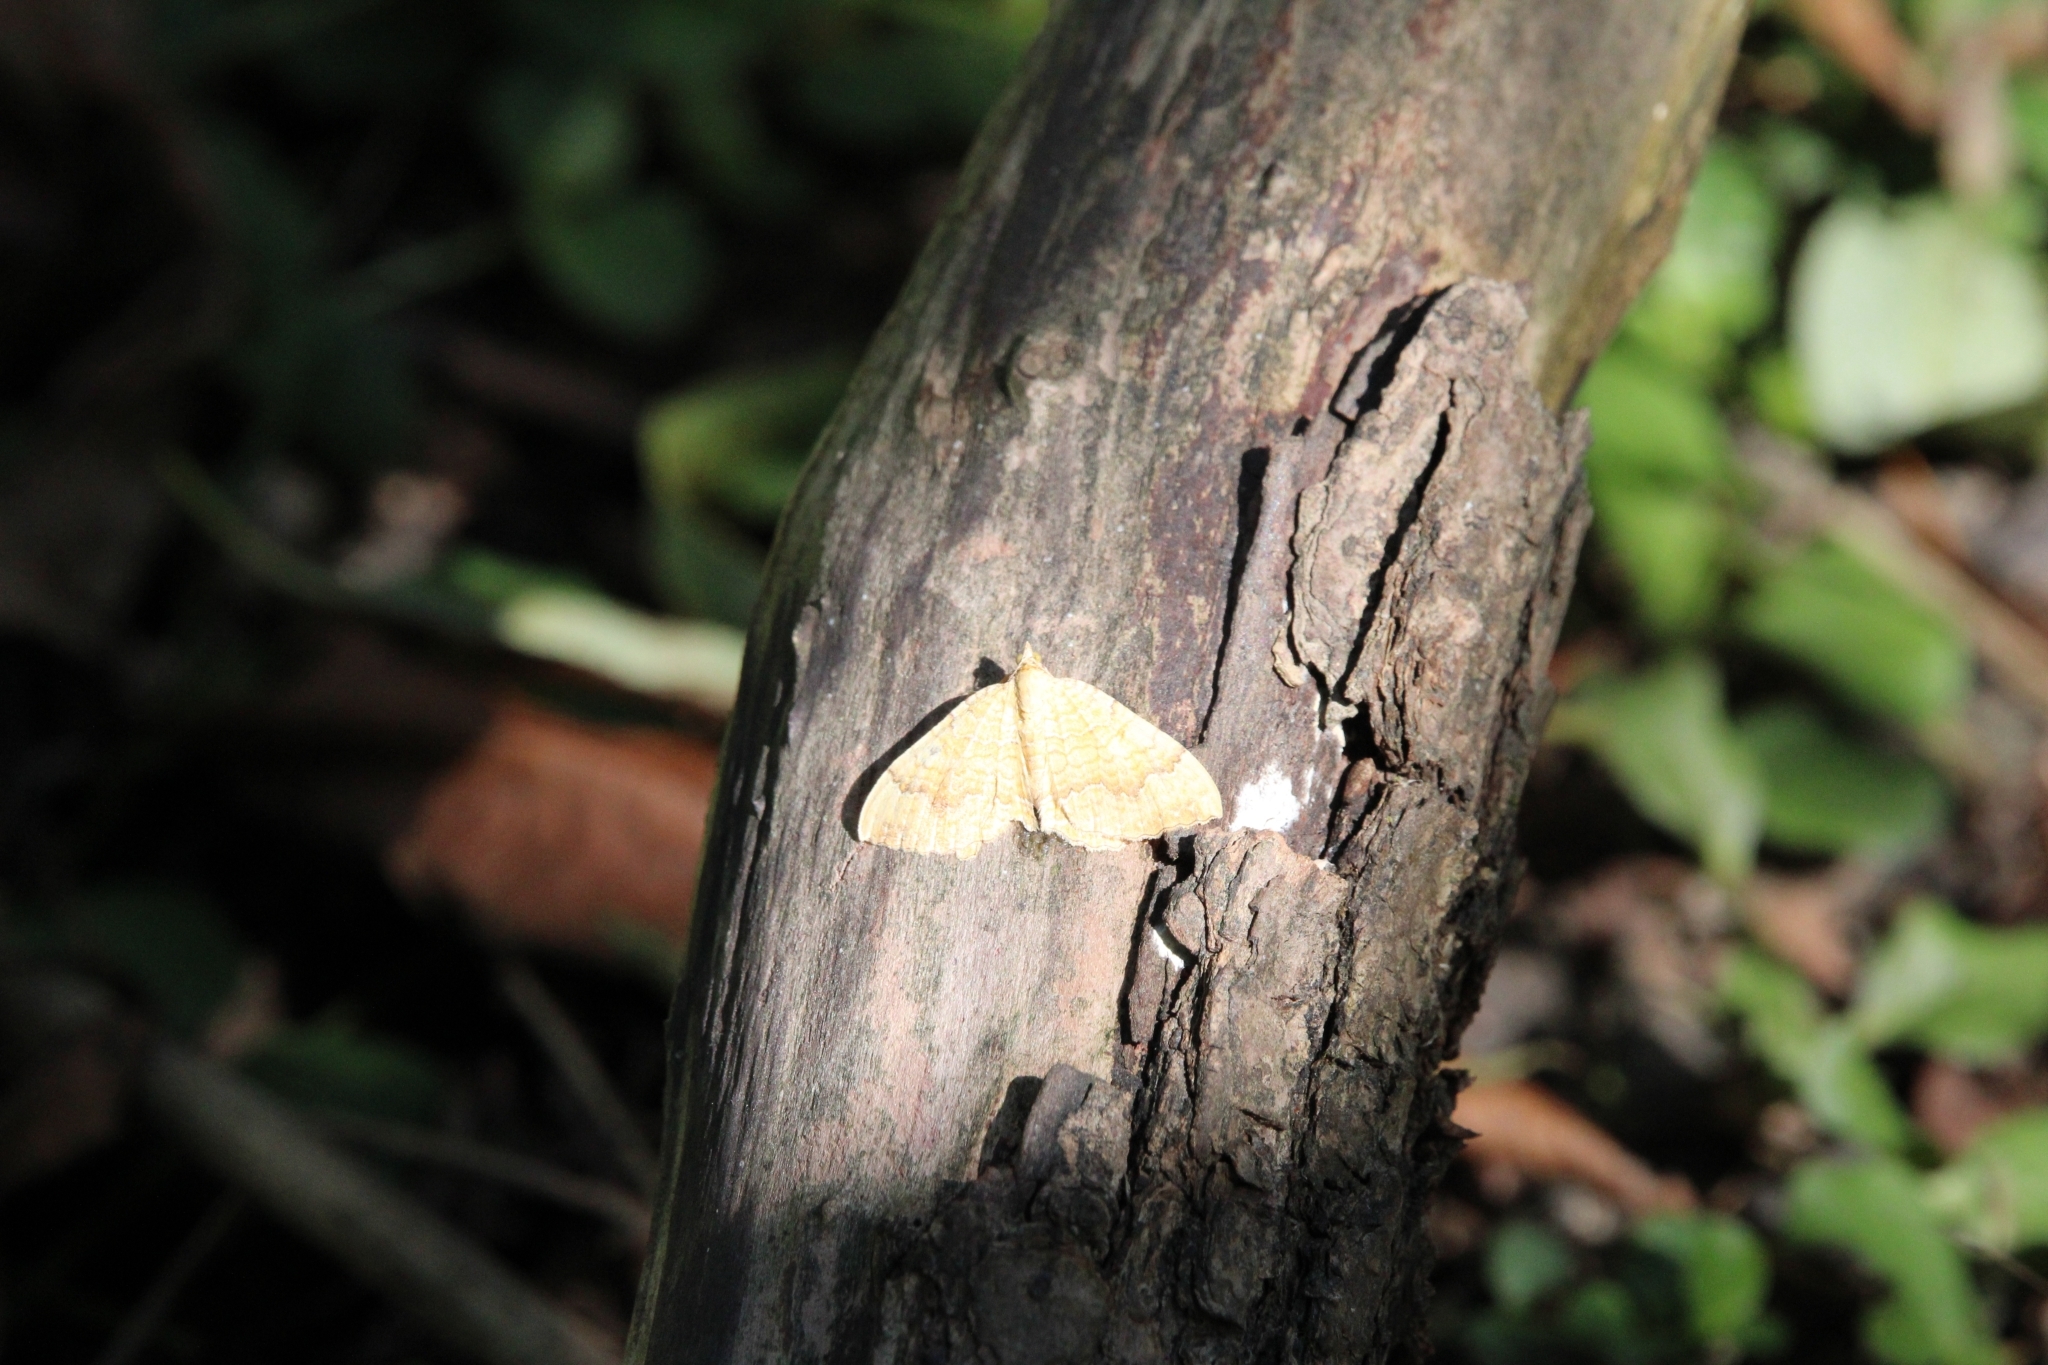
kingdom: Animalia
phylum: Arthropoda
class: Insecta
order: Lepidoptera
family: Geometridae
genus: Camptogramma
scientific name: Camptogramma bilineata
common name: Yellow shell
